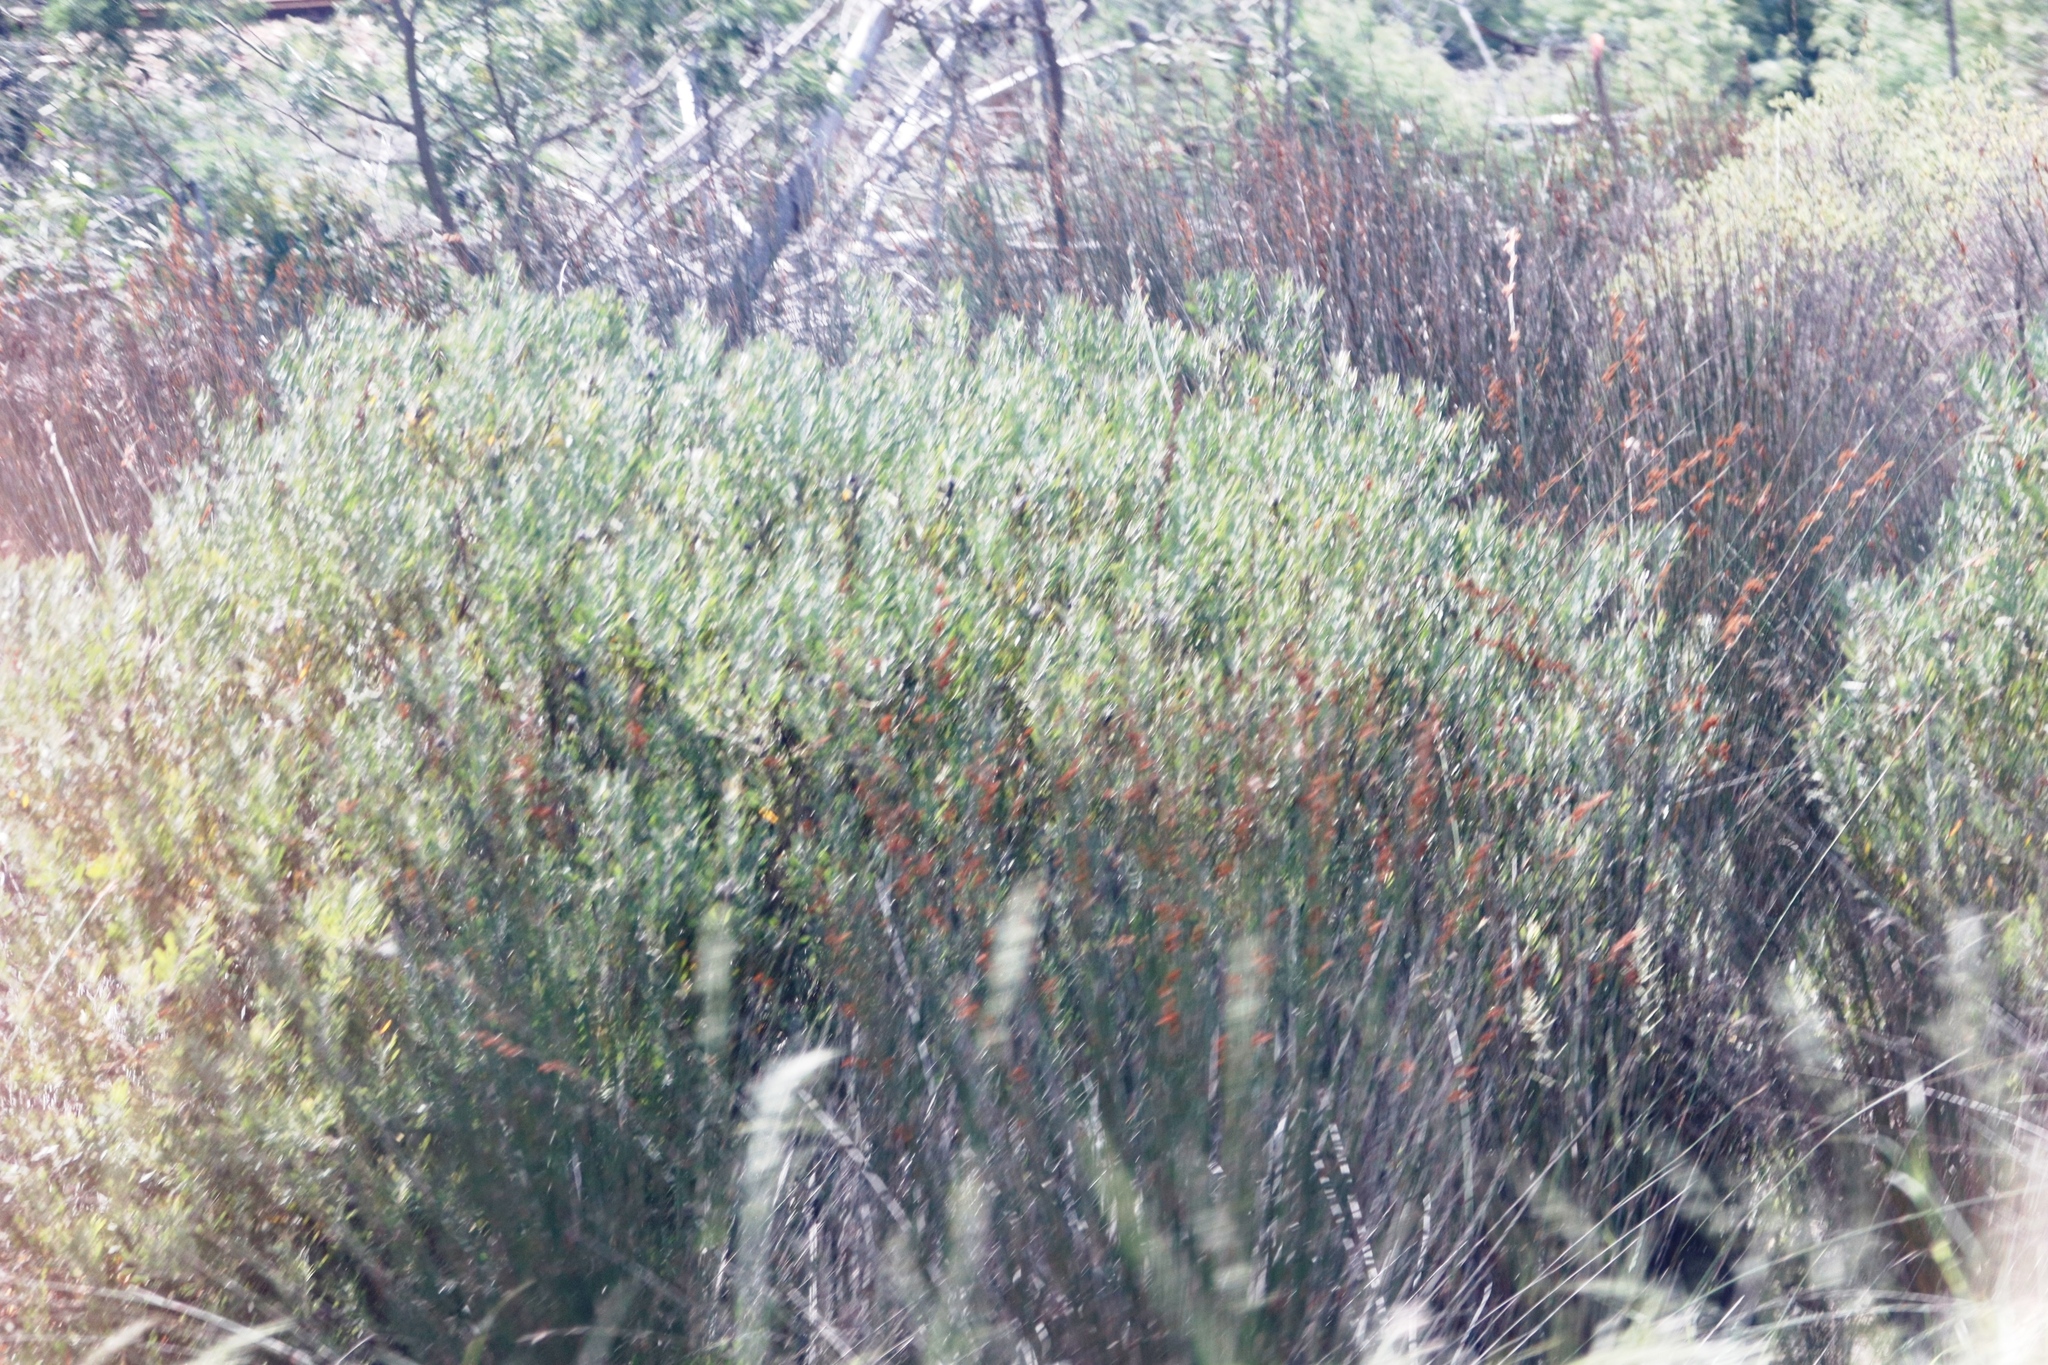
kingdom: Plantae
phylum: Tracheophyta
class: Magnoliopsida
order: Proteales
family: Proteaceae
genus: Leucospermum
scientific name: Leucospermum praecox
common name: Mossel bay pincushion
